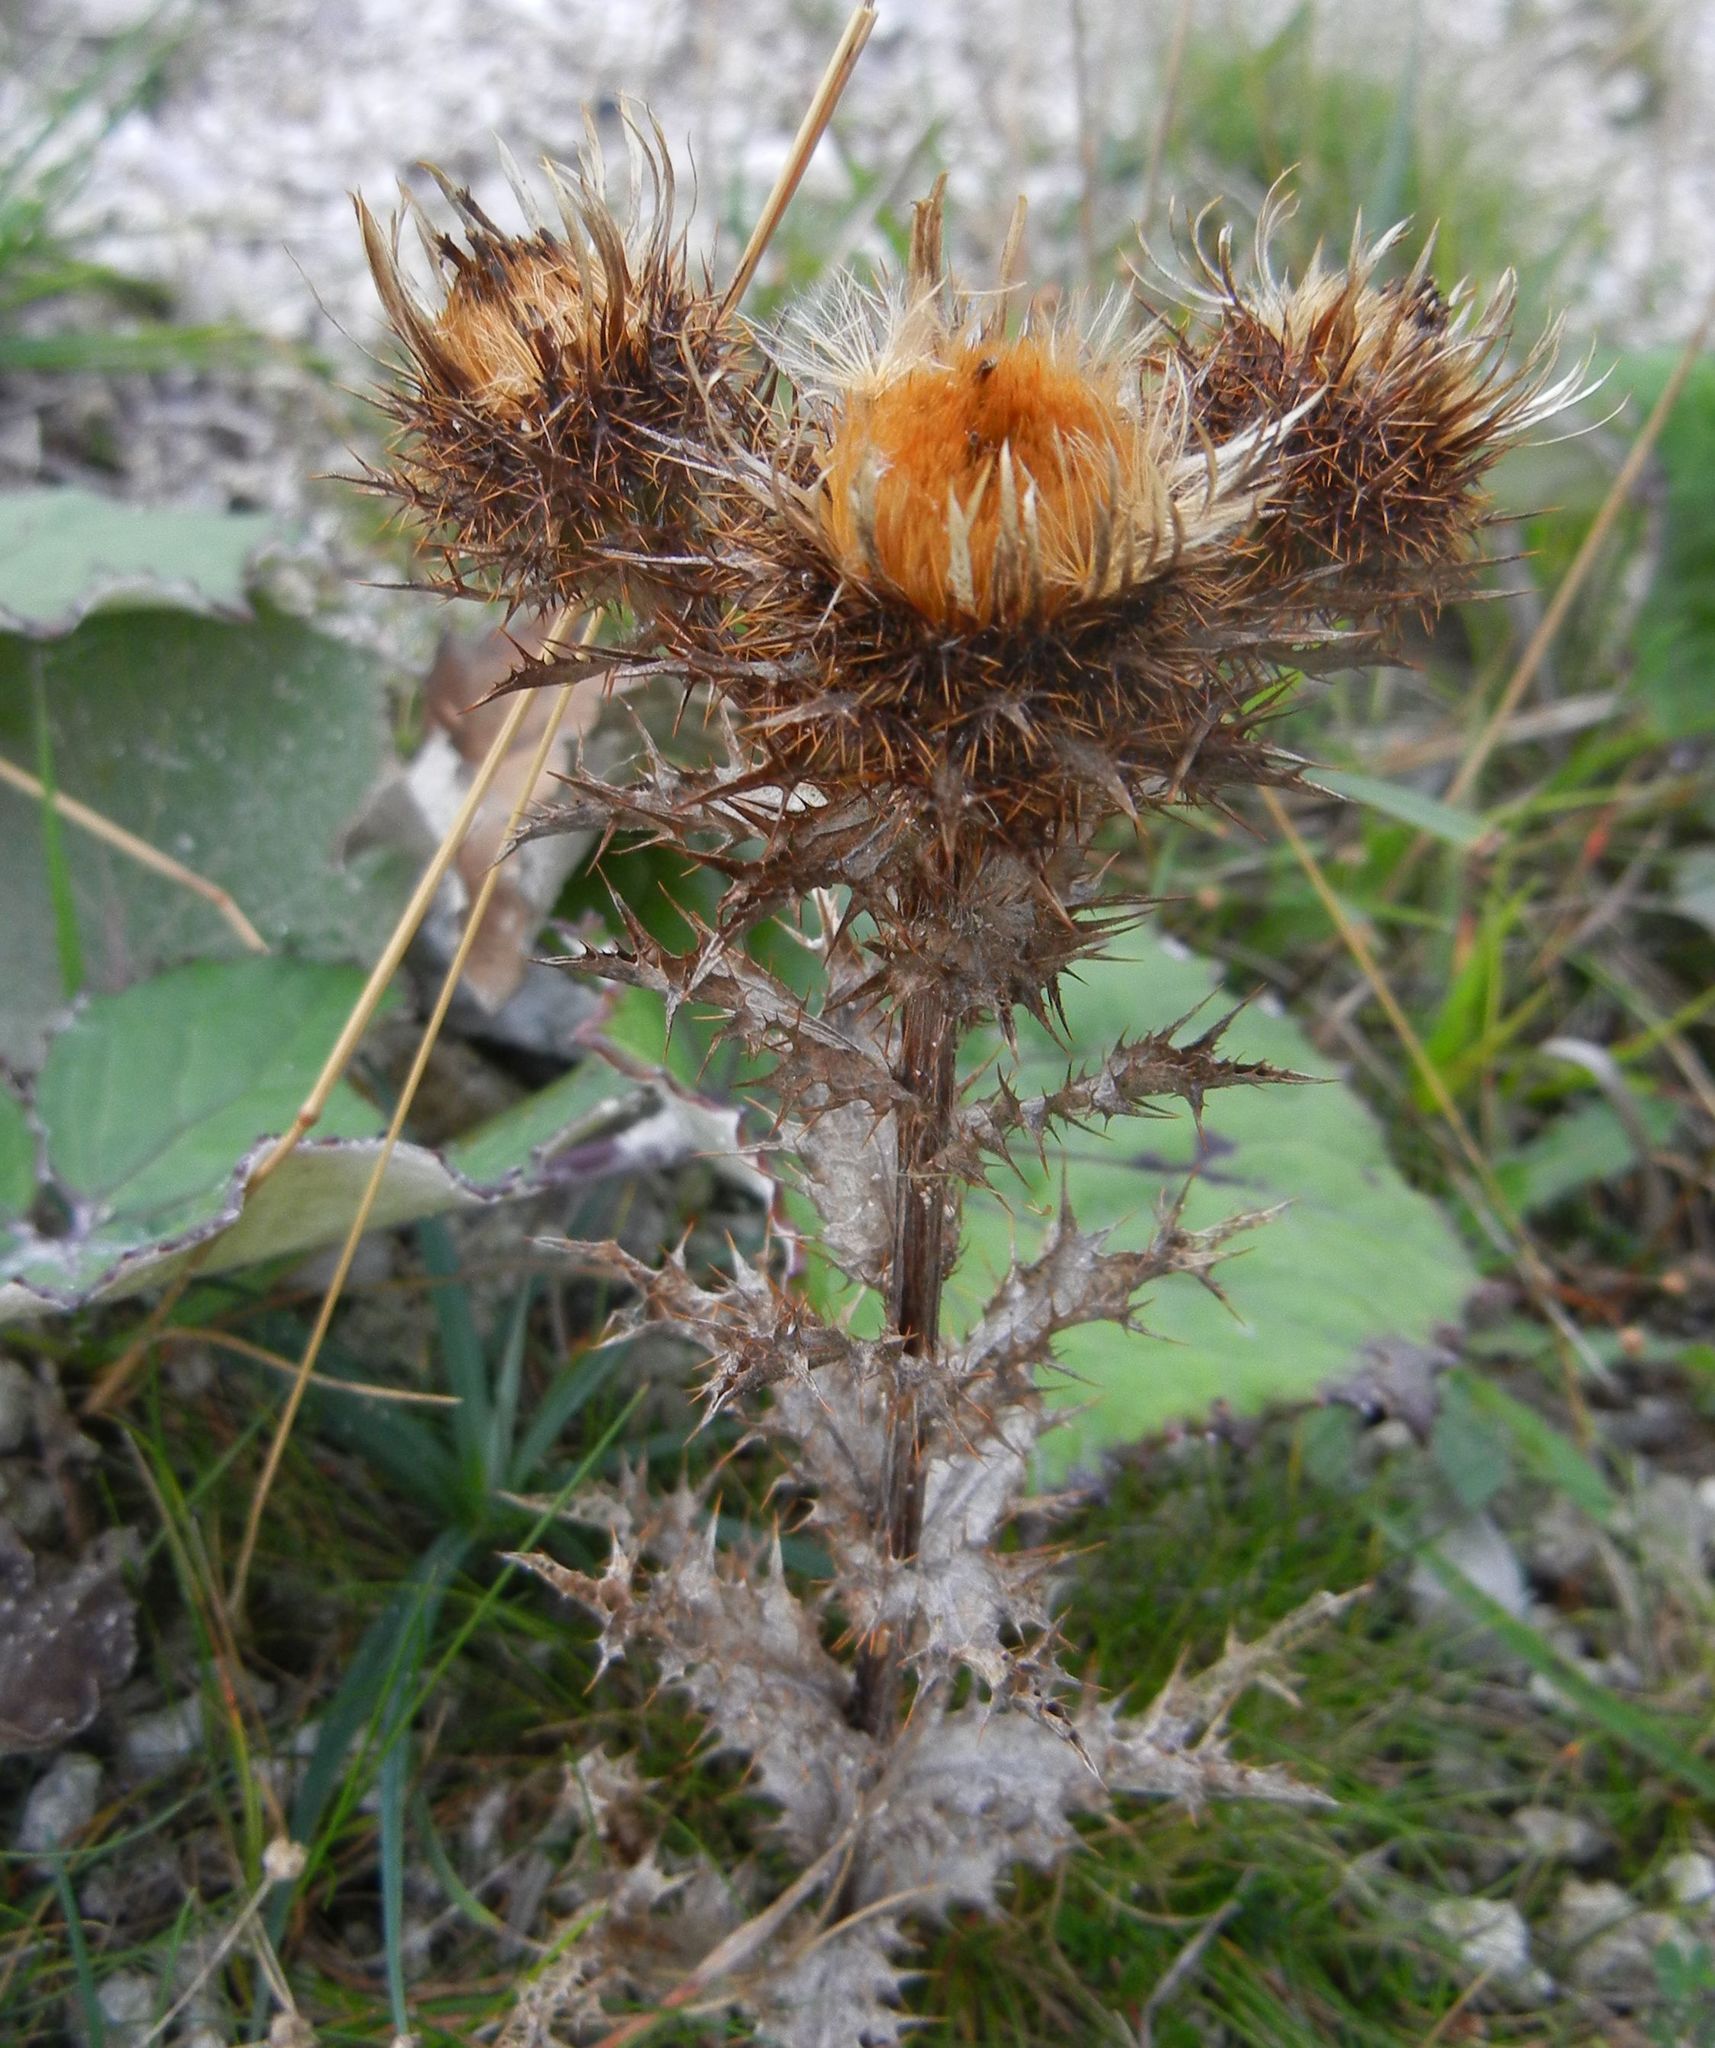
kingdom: Plantae
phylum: Tracheophyta
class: Magnoliopsida
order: Asterales
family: Asteraceae
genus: Carlina
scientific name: Carlina vulgaris
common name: Carline thistle
